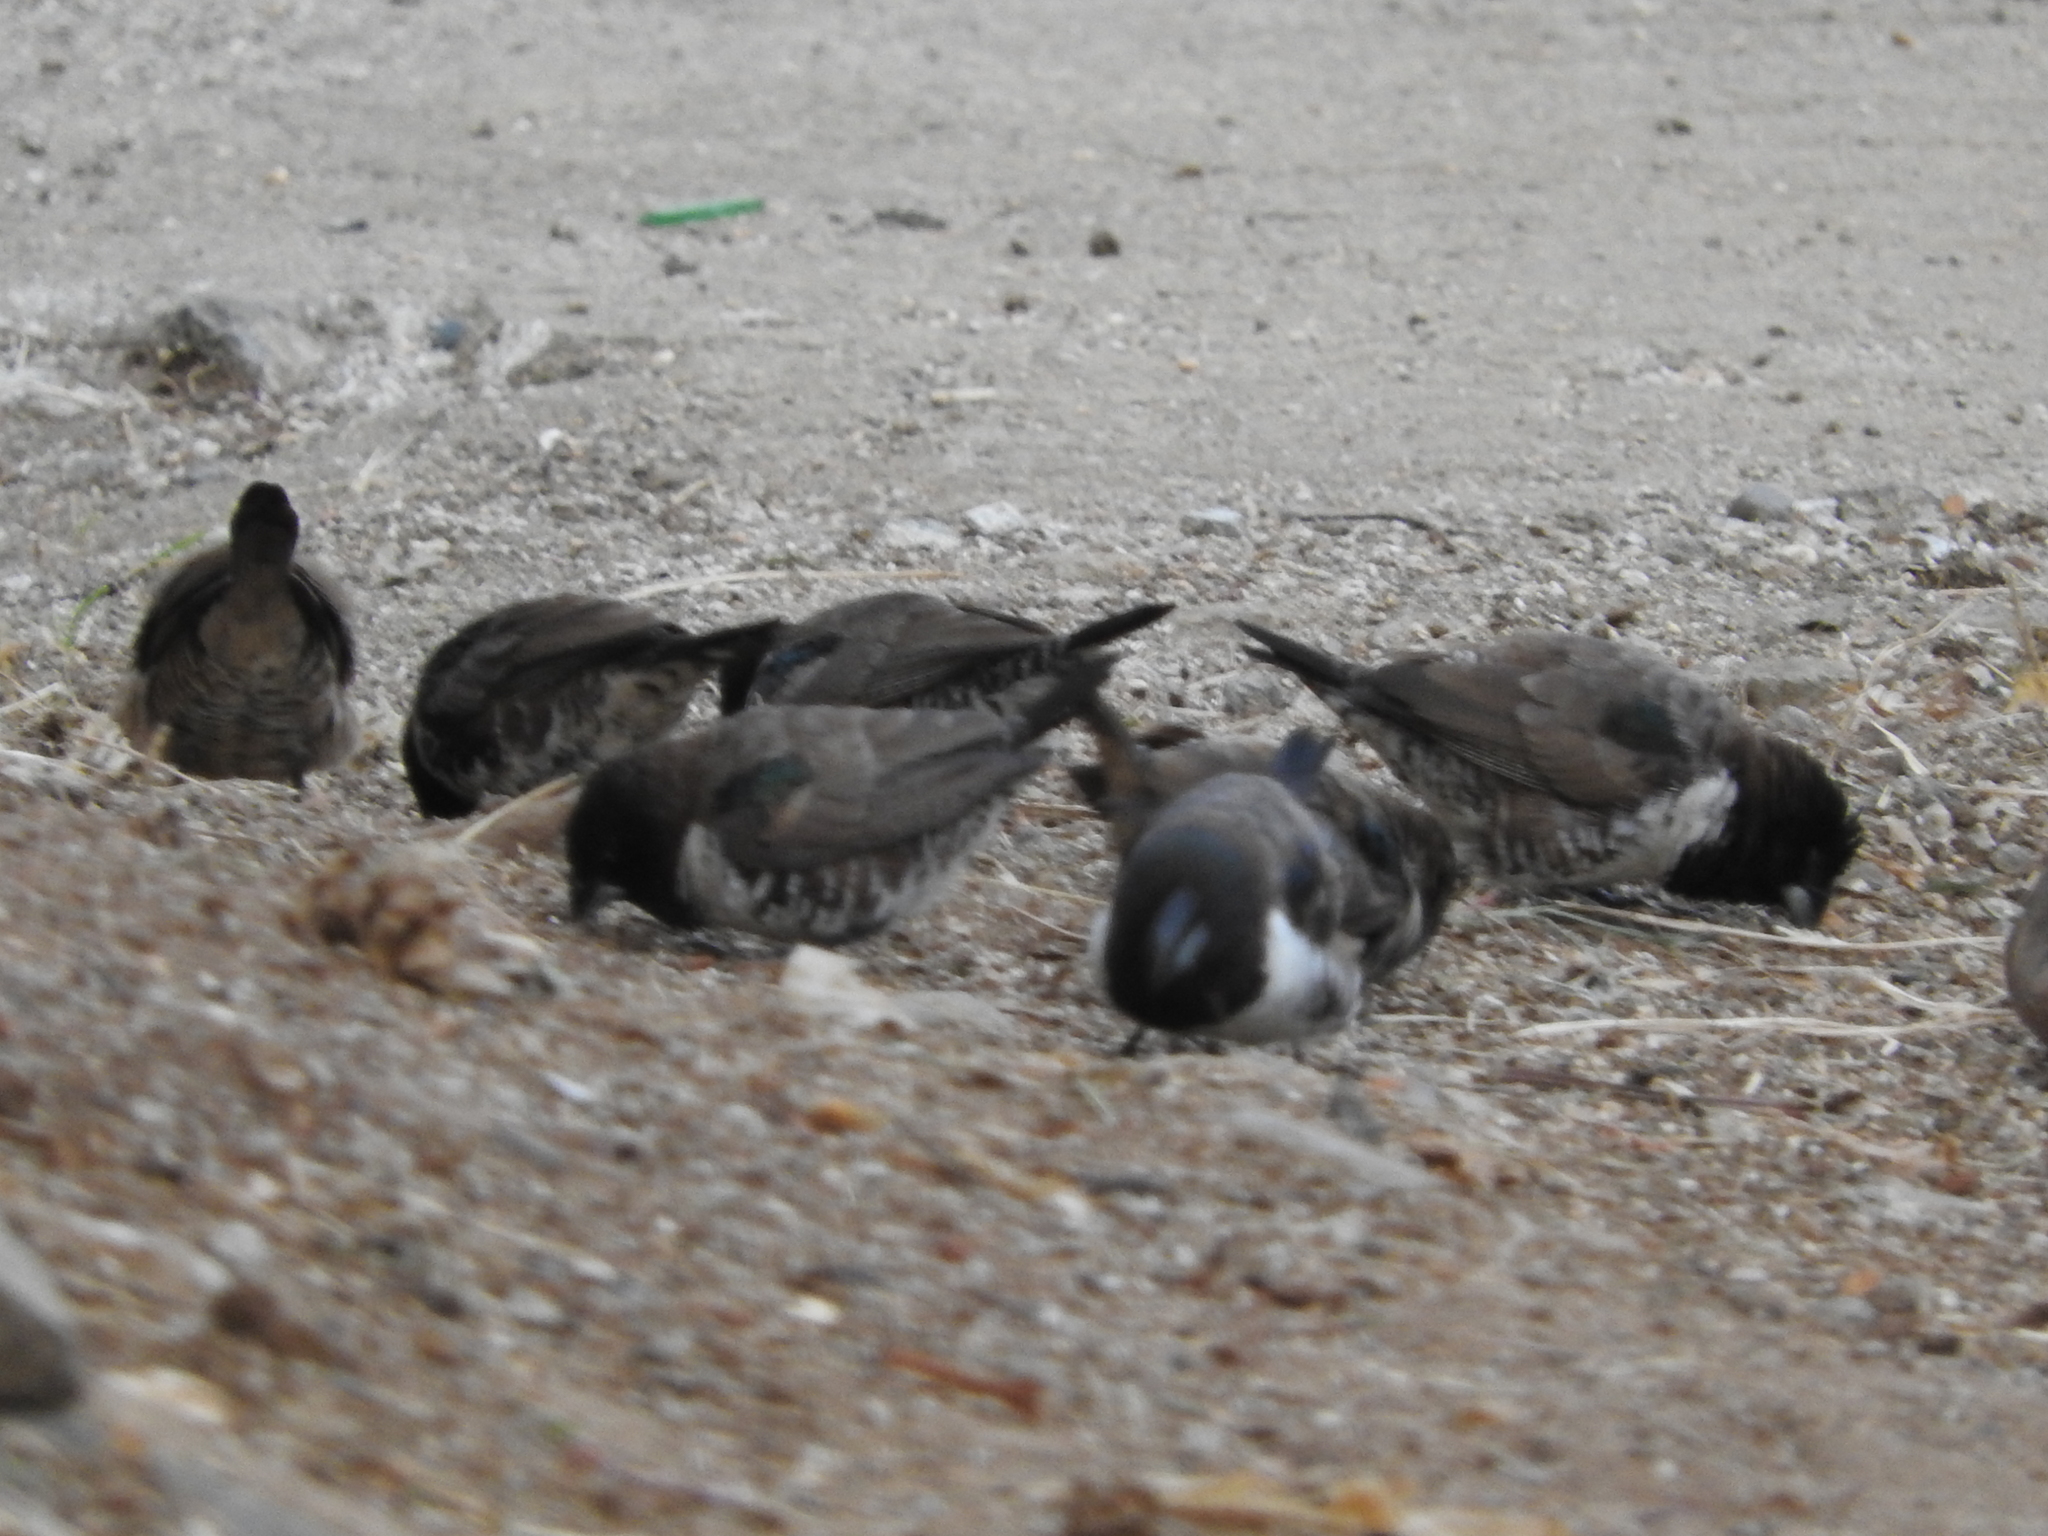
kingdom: Animalia
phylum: Chordata
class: Aves
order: Passeriformes
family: Estrildidae
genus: Lonchura
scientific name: Lonchura cucullata
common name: Bronze mannikin
